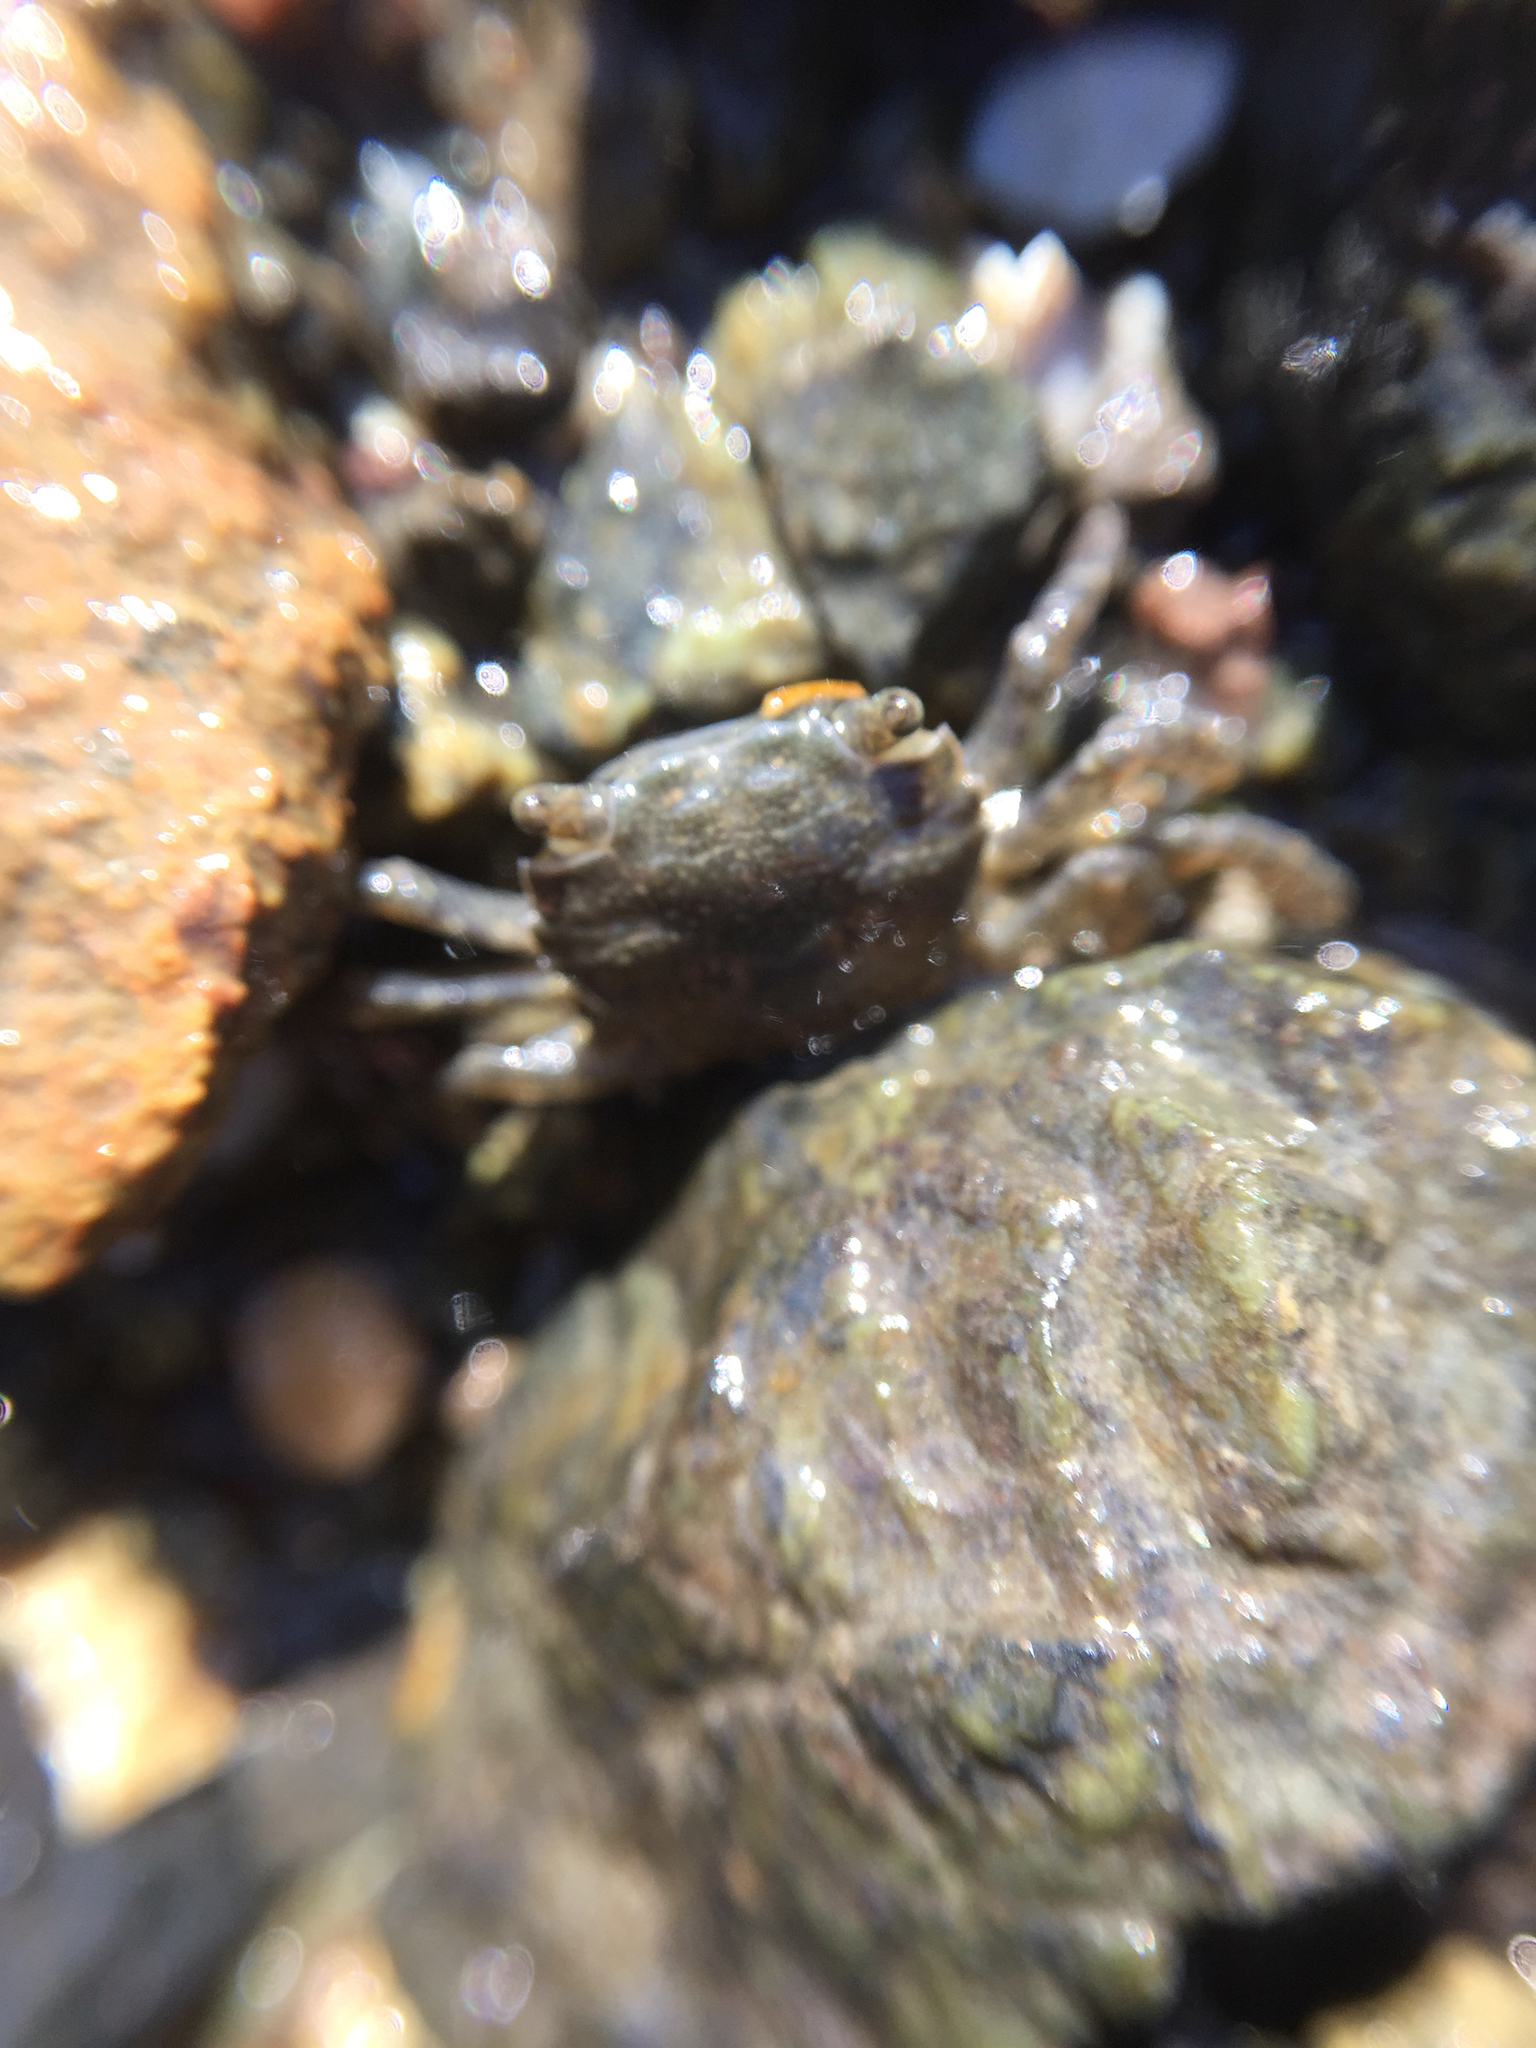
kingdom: Animalia
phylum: Arthropoda
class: Malacostraca
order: Decapoda
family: Varunidae
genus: Hemigrapsus
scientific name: Hemigrapsus oregonensis
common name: Yellow shore crab
